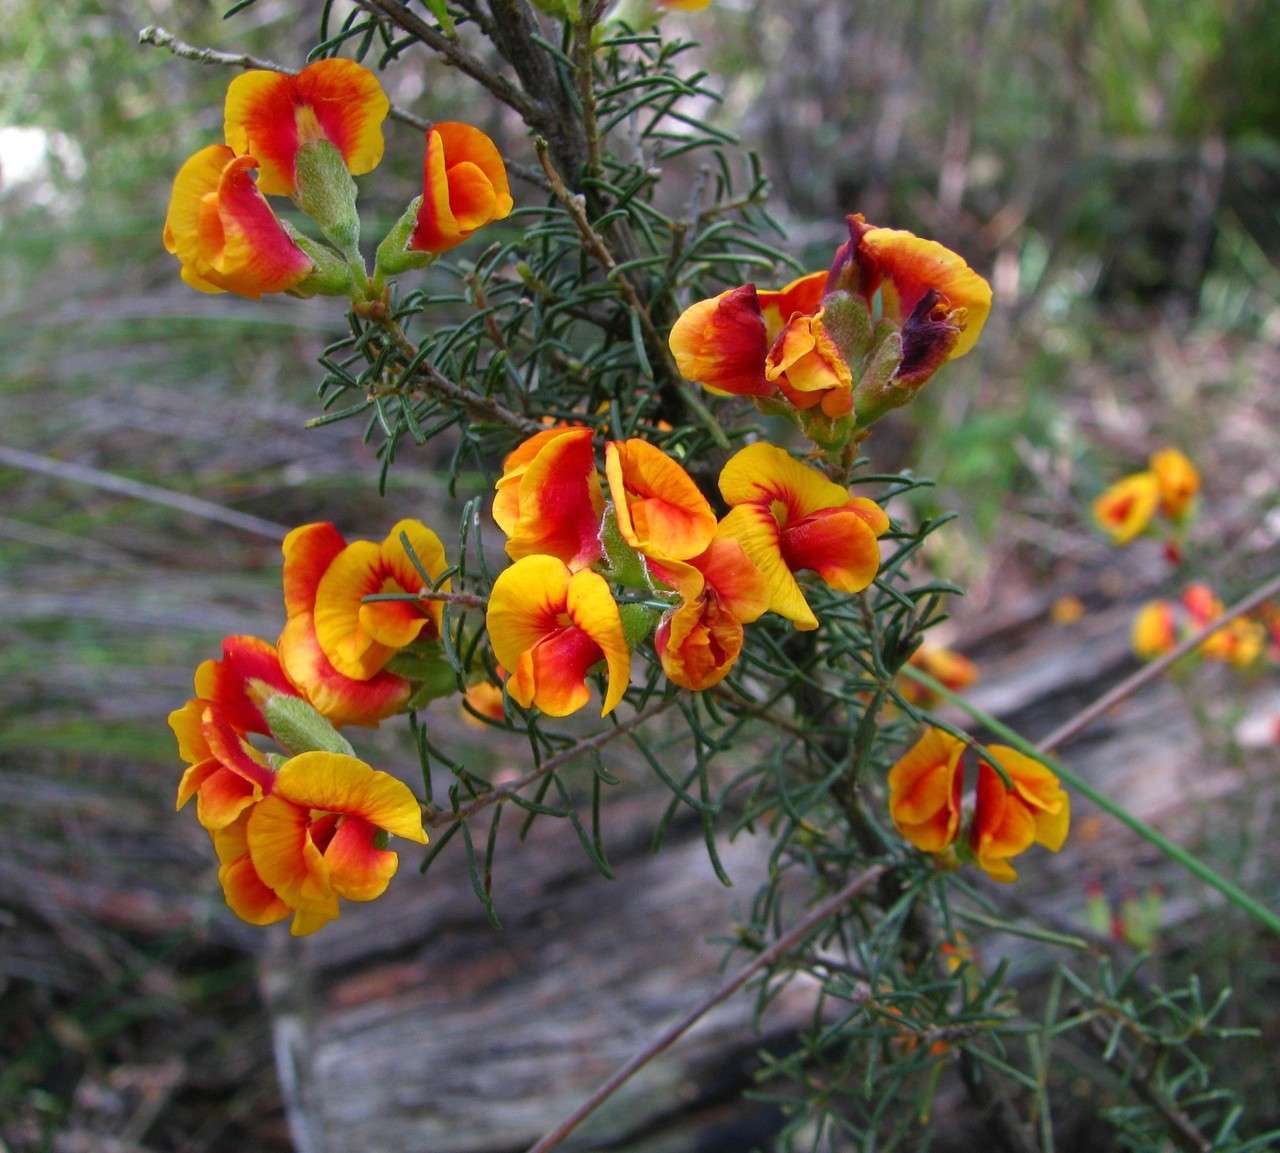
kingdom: Plantae
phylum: Tracheophyta
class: Magnoliopsida
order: Fabales
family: Fabaceae
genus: Dillwynia
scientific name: Dillwynia cinerascens
